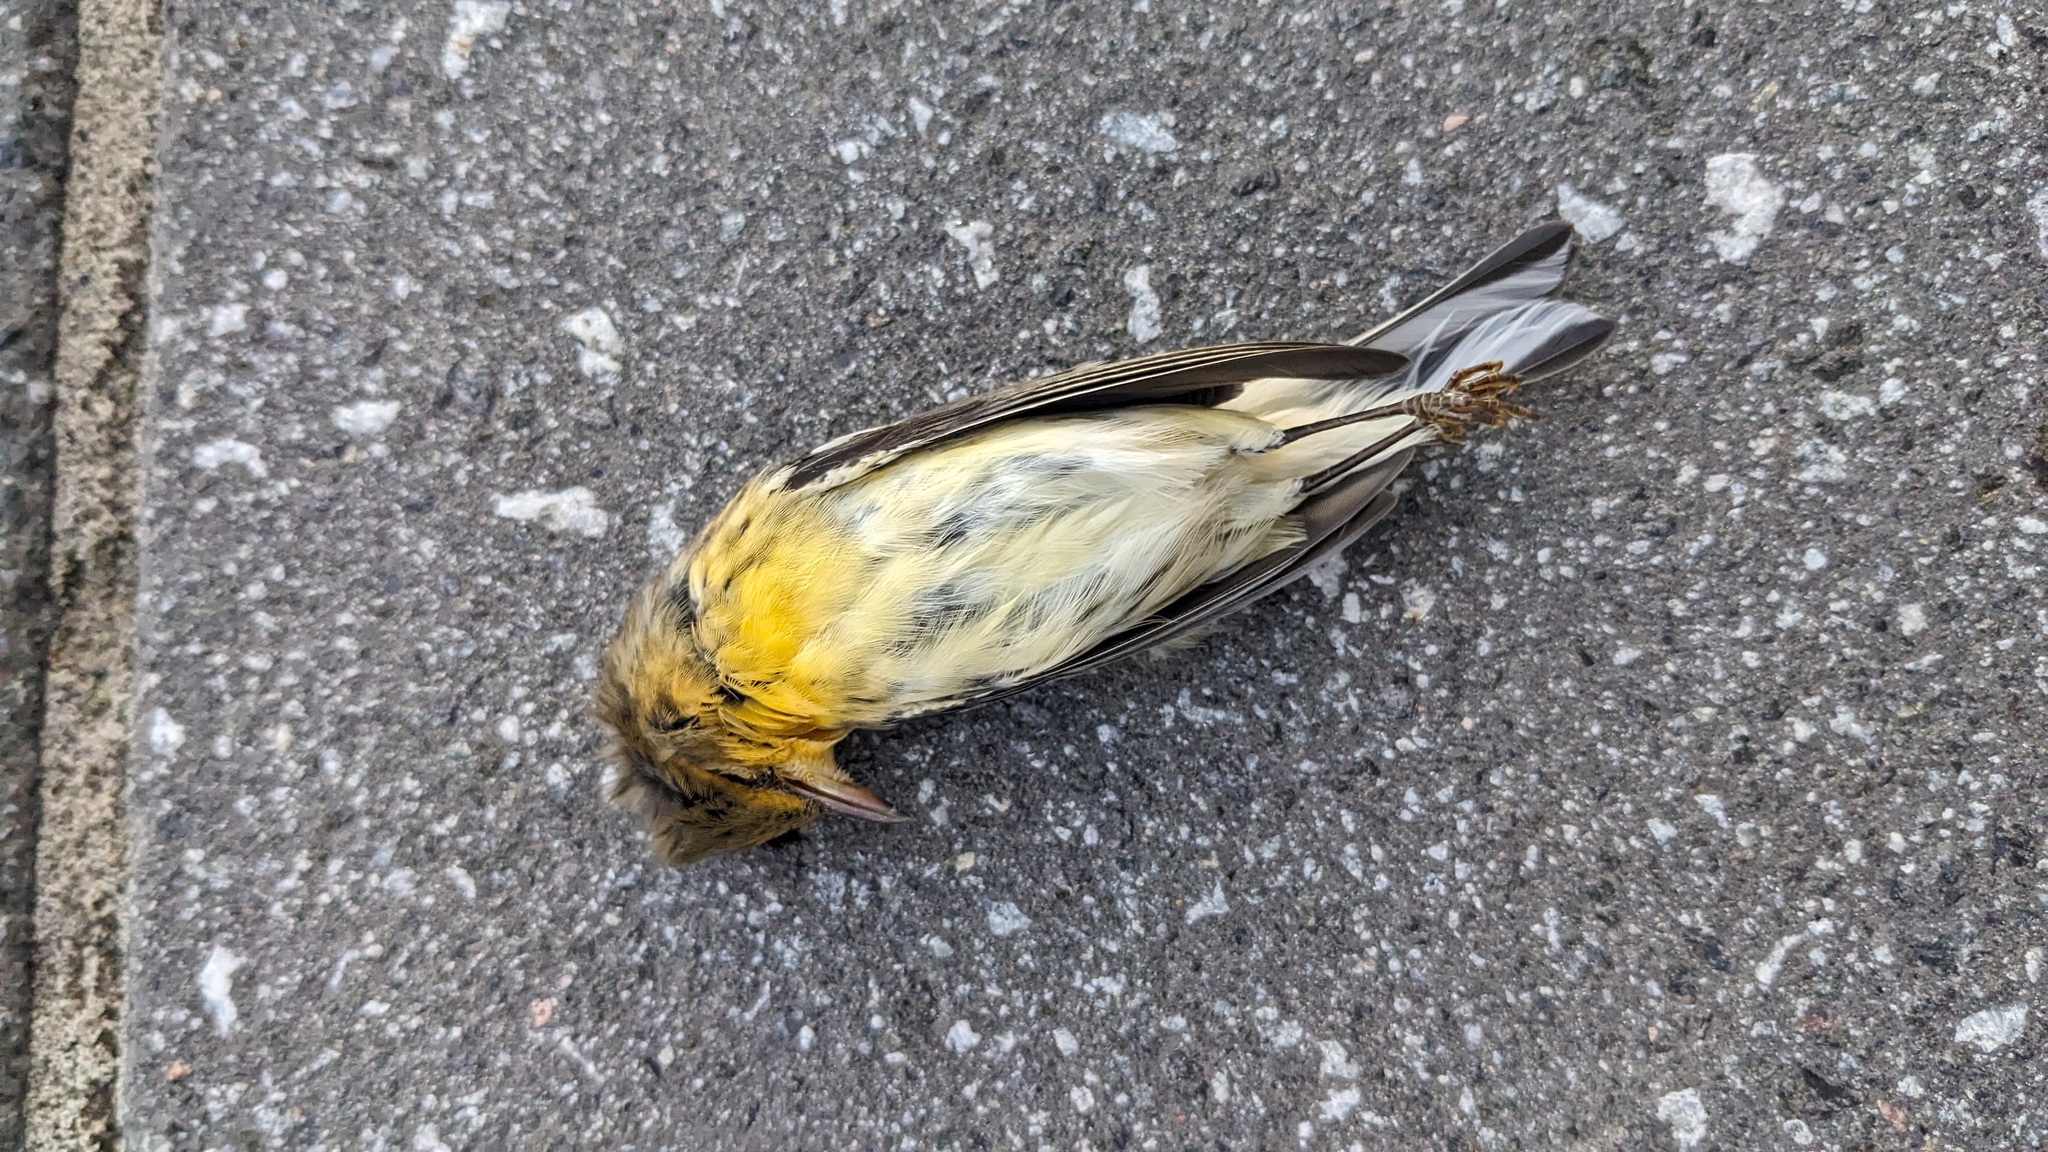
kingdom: Animalia
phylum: Chordata
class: Aves
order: Passeriformes
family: Parulidae
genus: Setophaga
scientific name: Setophaga striata
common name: Blackpoll warbler
